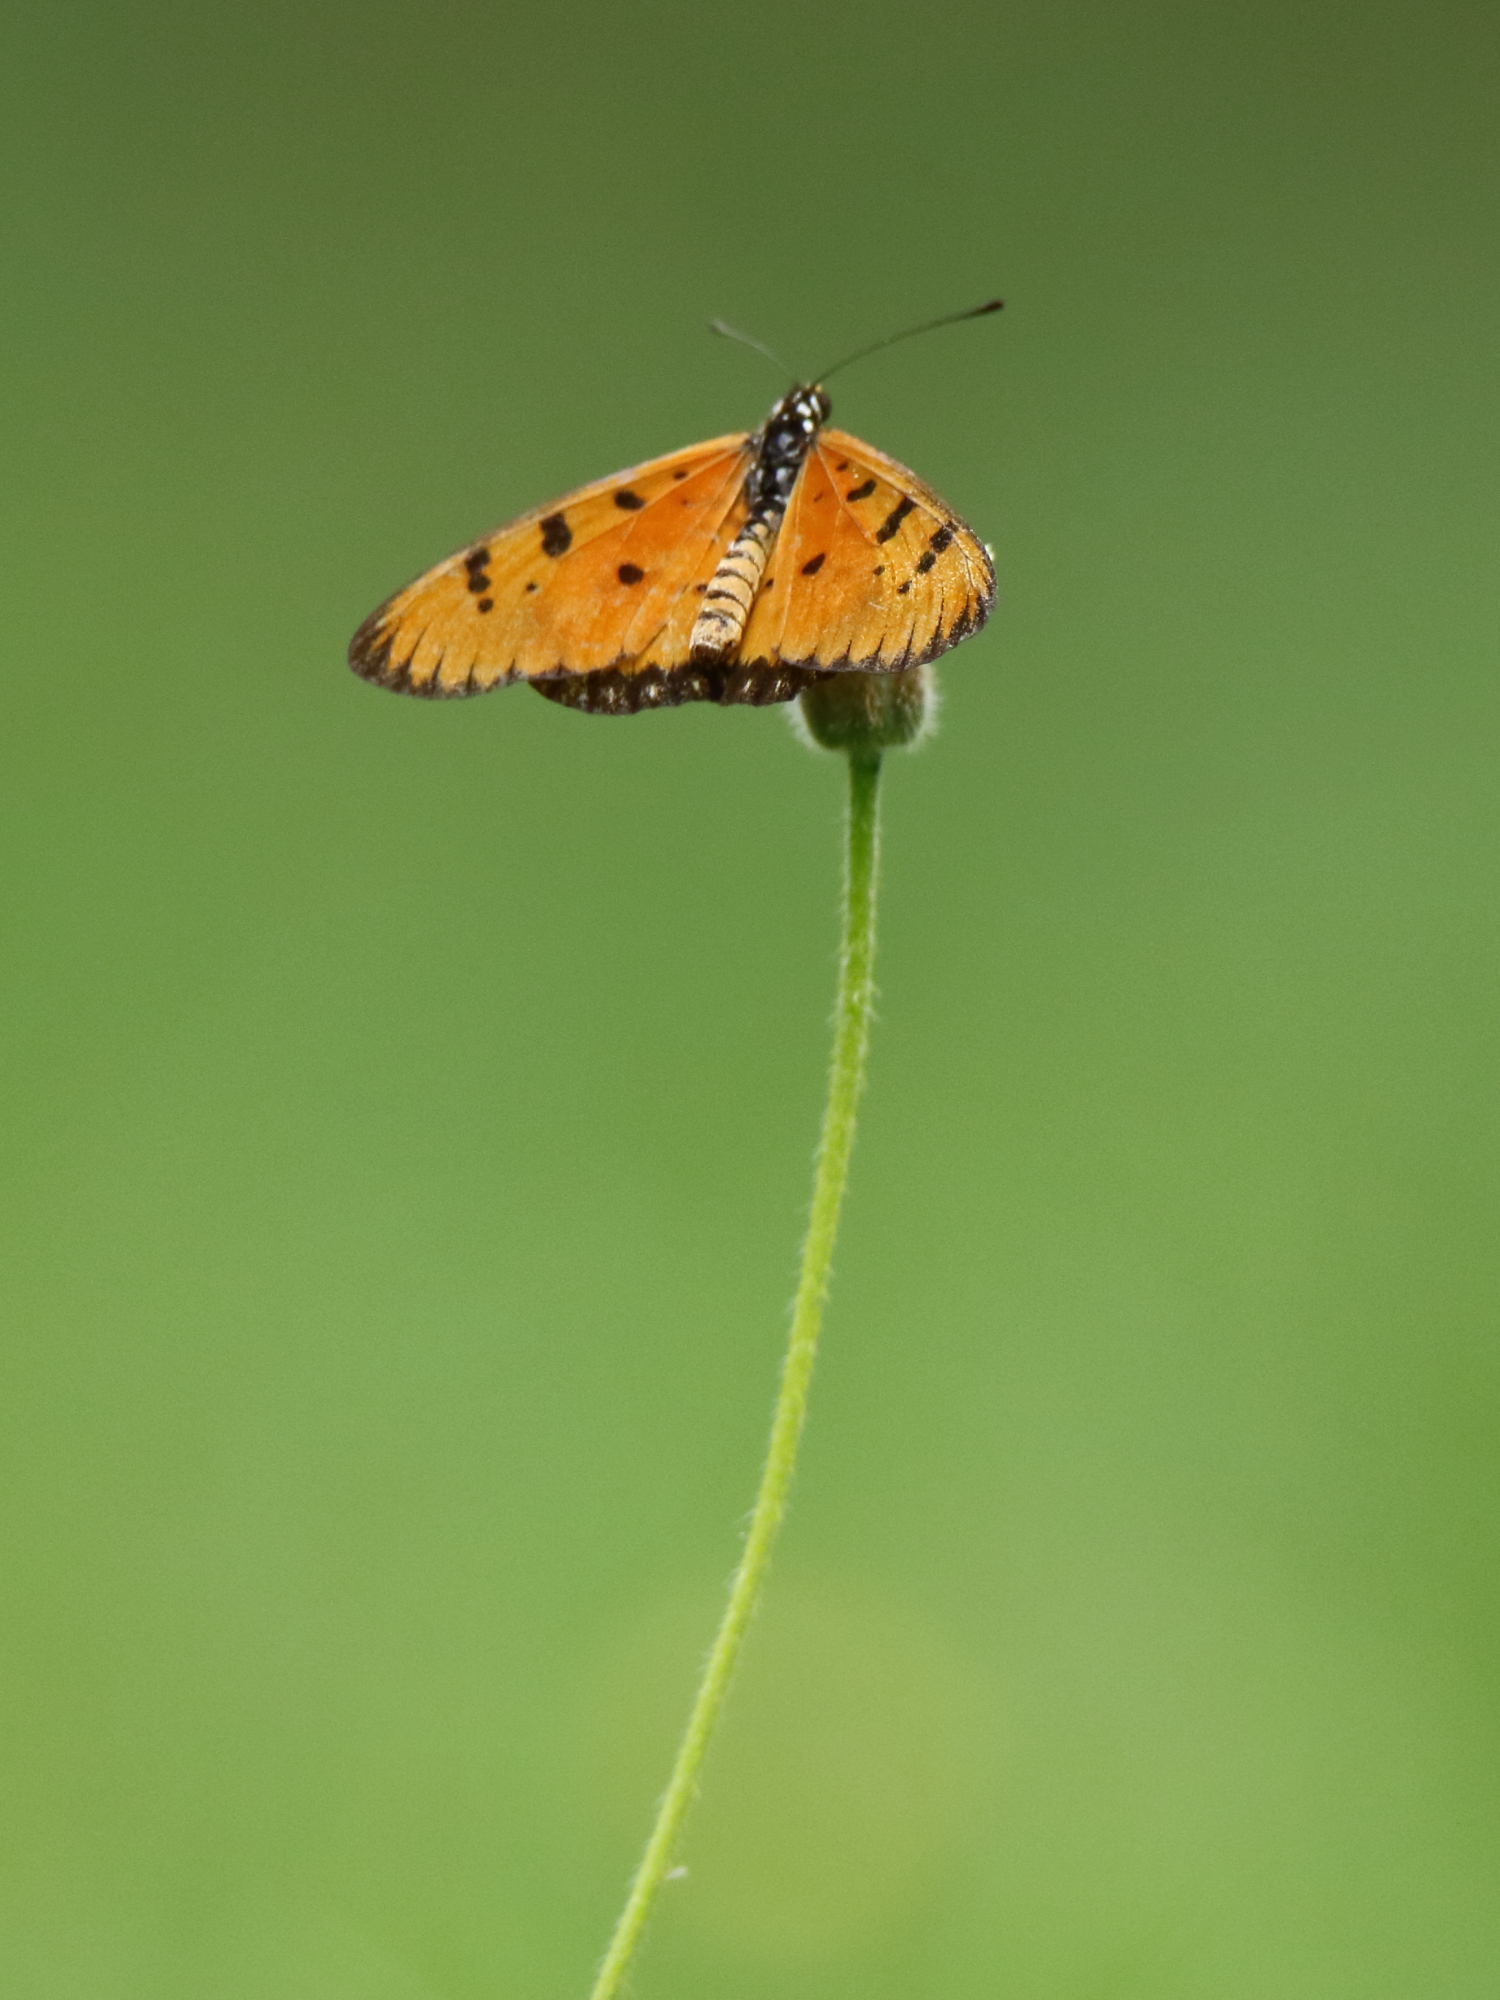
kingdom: Animalia
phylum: Arthropoda
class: Insecta
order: Lepidoptera
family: Nymphalidae
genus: Acraea
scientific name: Acraea terpsicore
